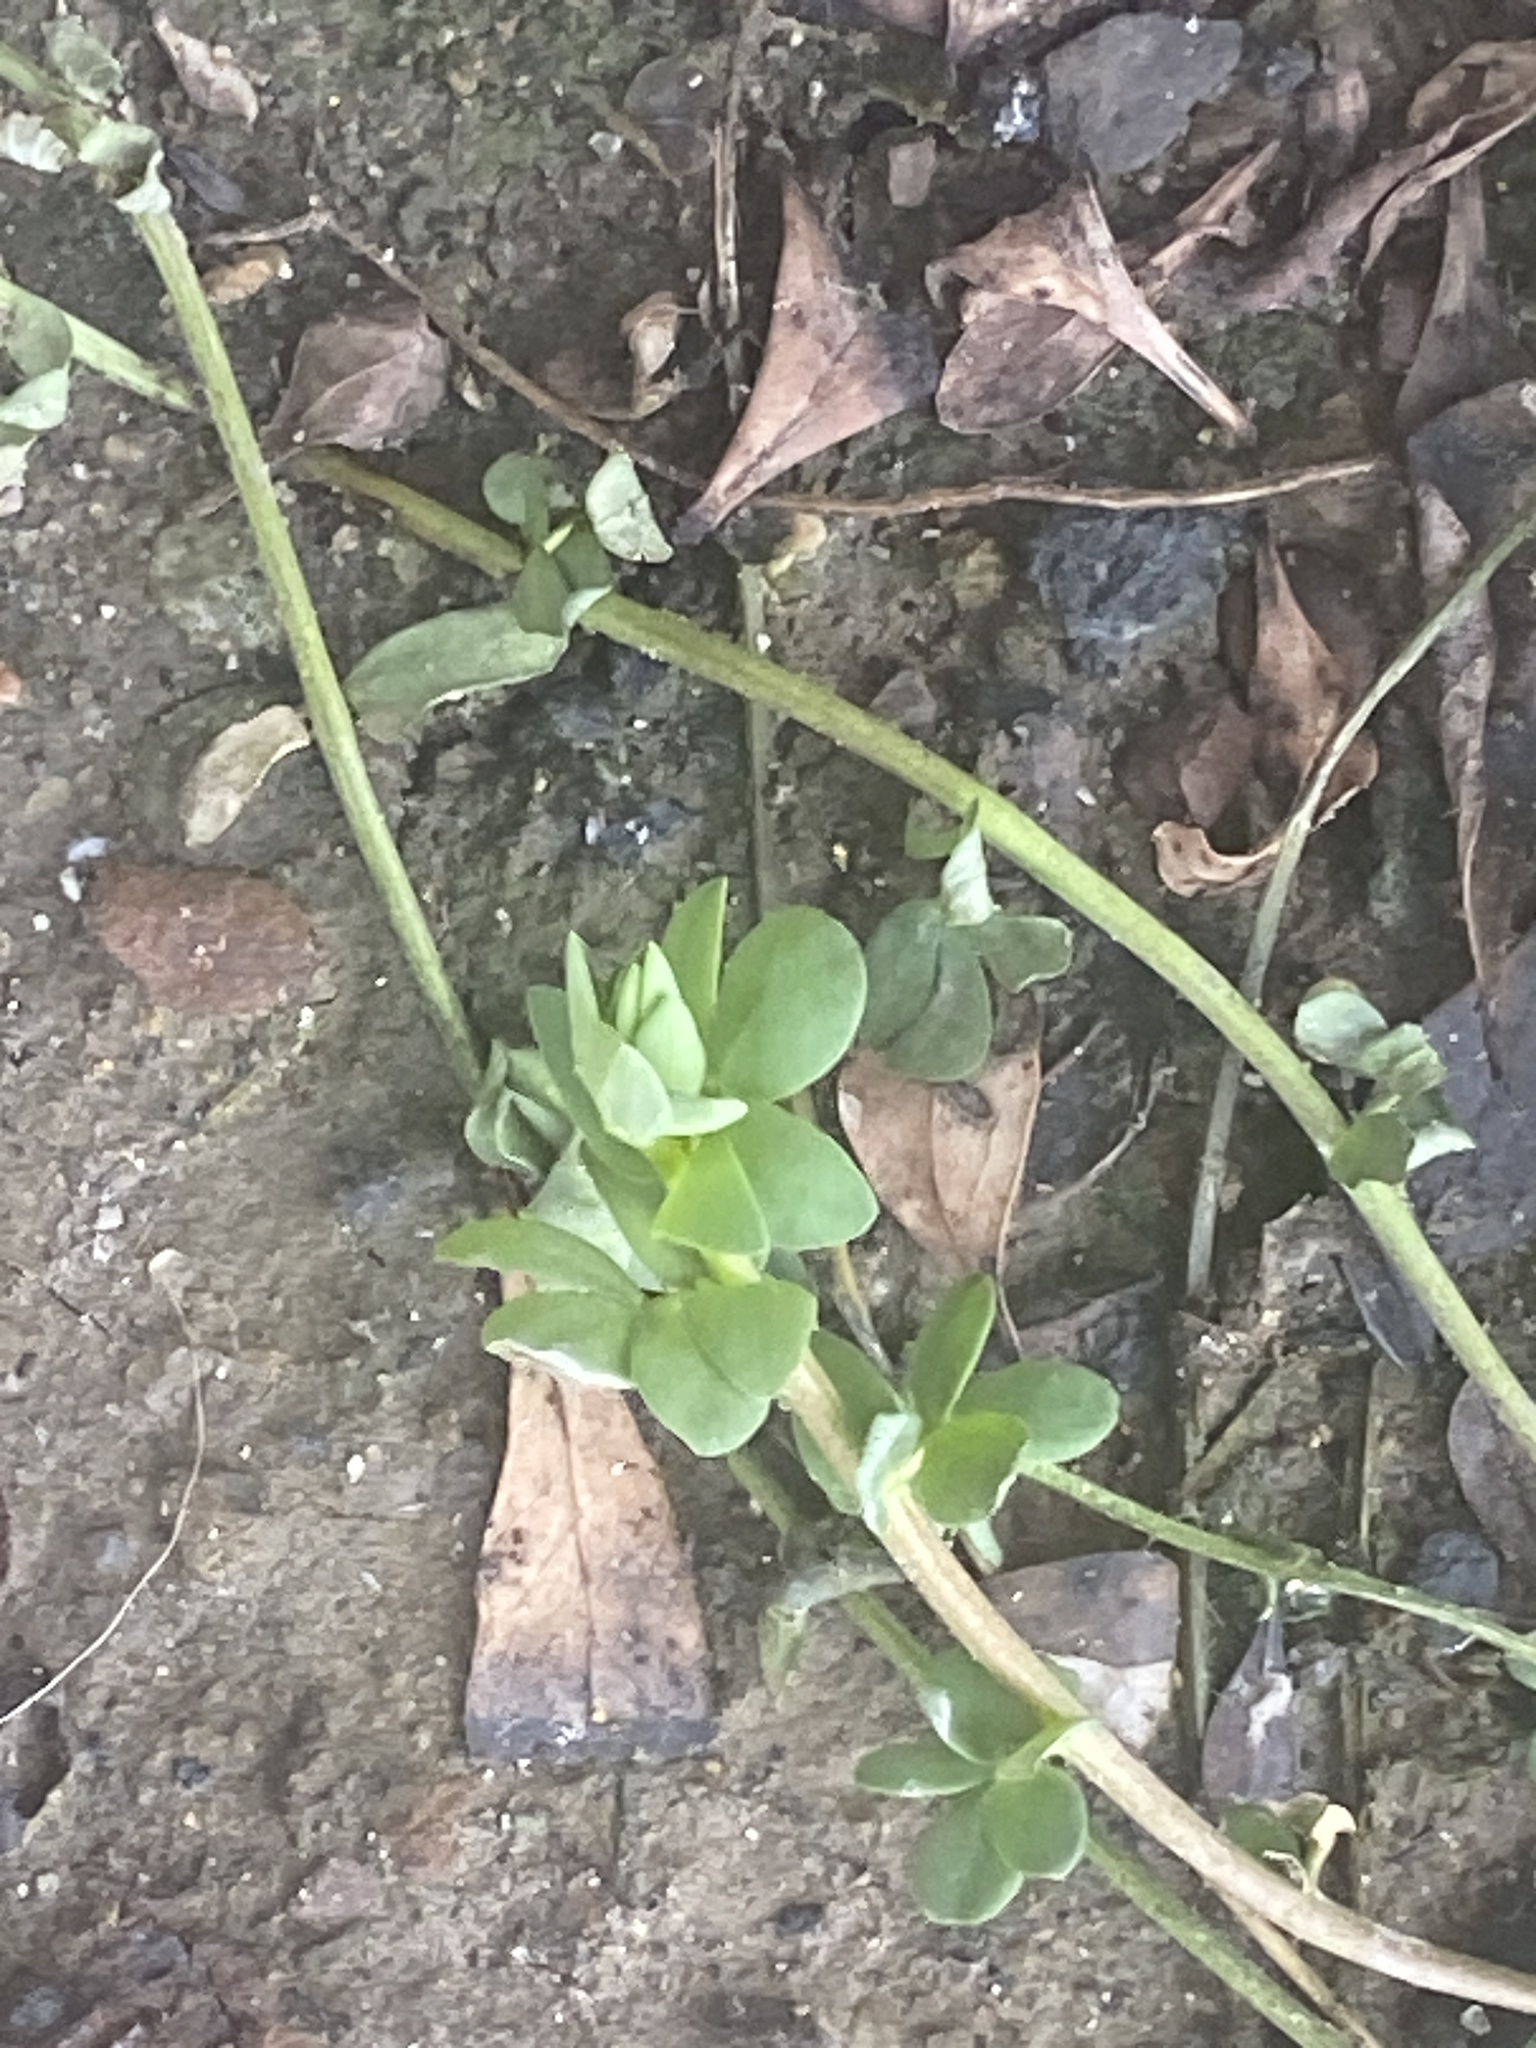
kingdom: Plantae
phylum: Tracheophyta
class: Magnoliopsida
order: Fabales
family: Fabaceae
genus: Lotus
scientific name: Lotus corniculatus
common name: Common bird's-foot-trefoil
